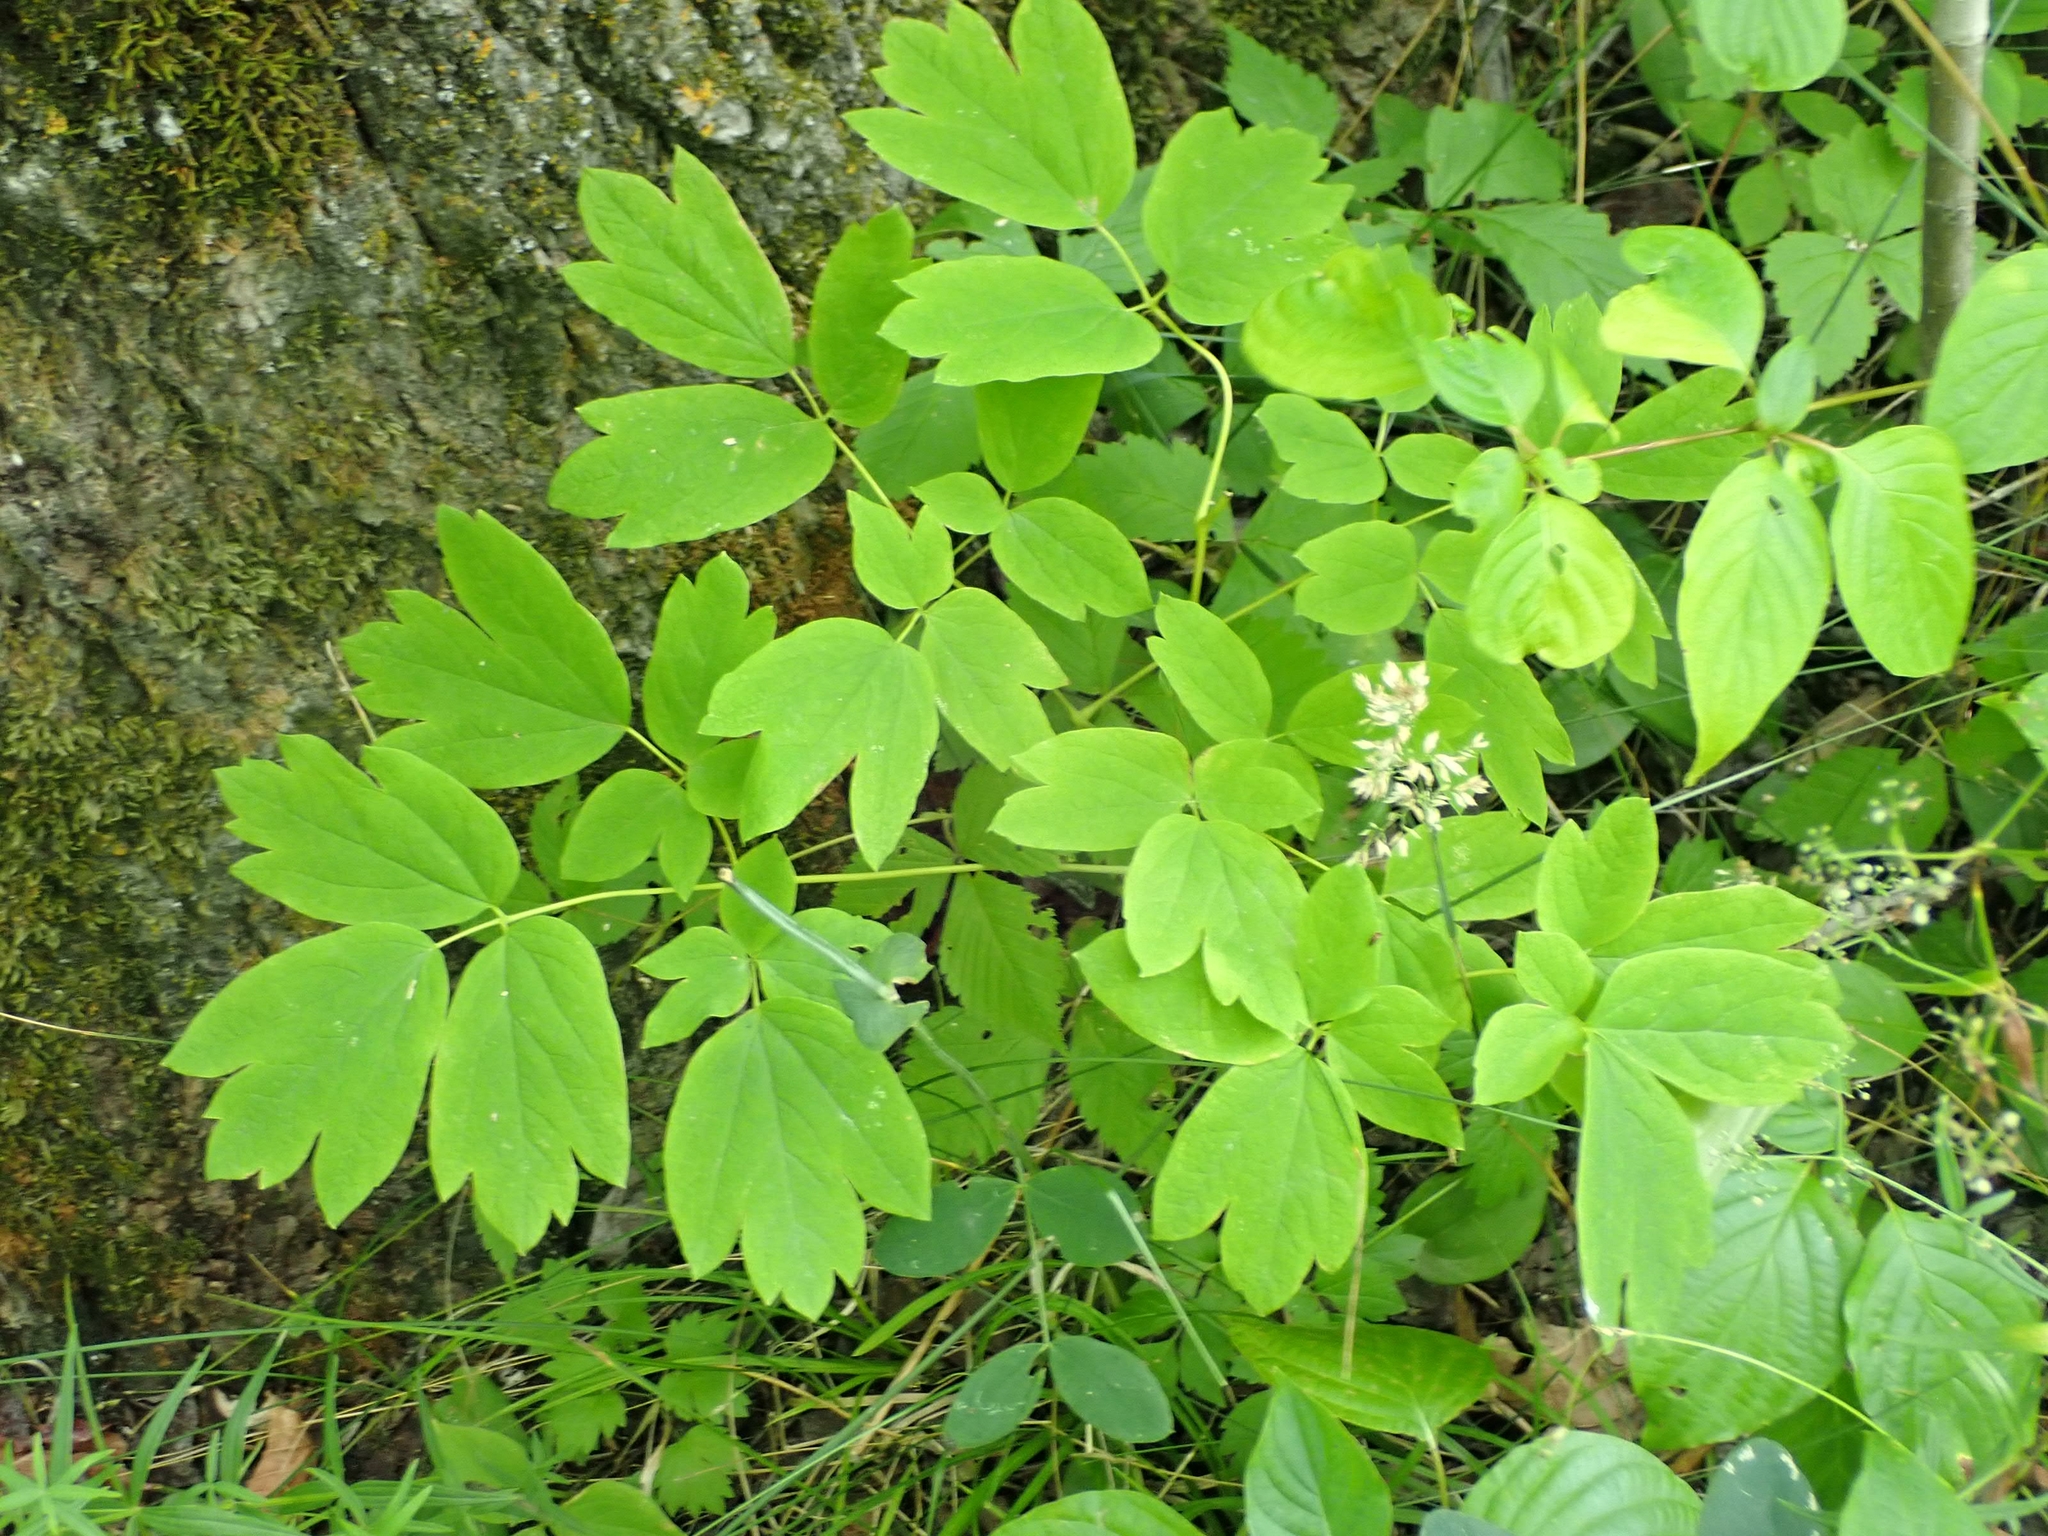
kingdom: Plantae
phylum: Tracheophyta
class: Magnoliopsida
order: Ranunculales
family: Berberidaceae
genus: Caulophyllum
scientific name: Caulophyllum thalictroides
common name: Blue cohosh
